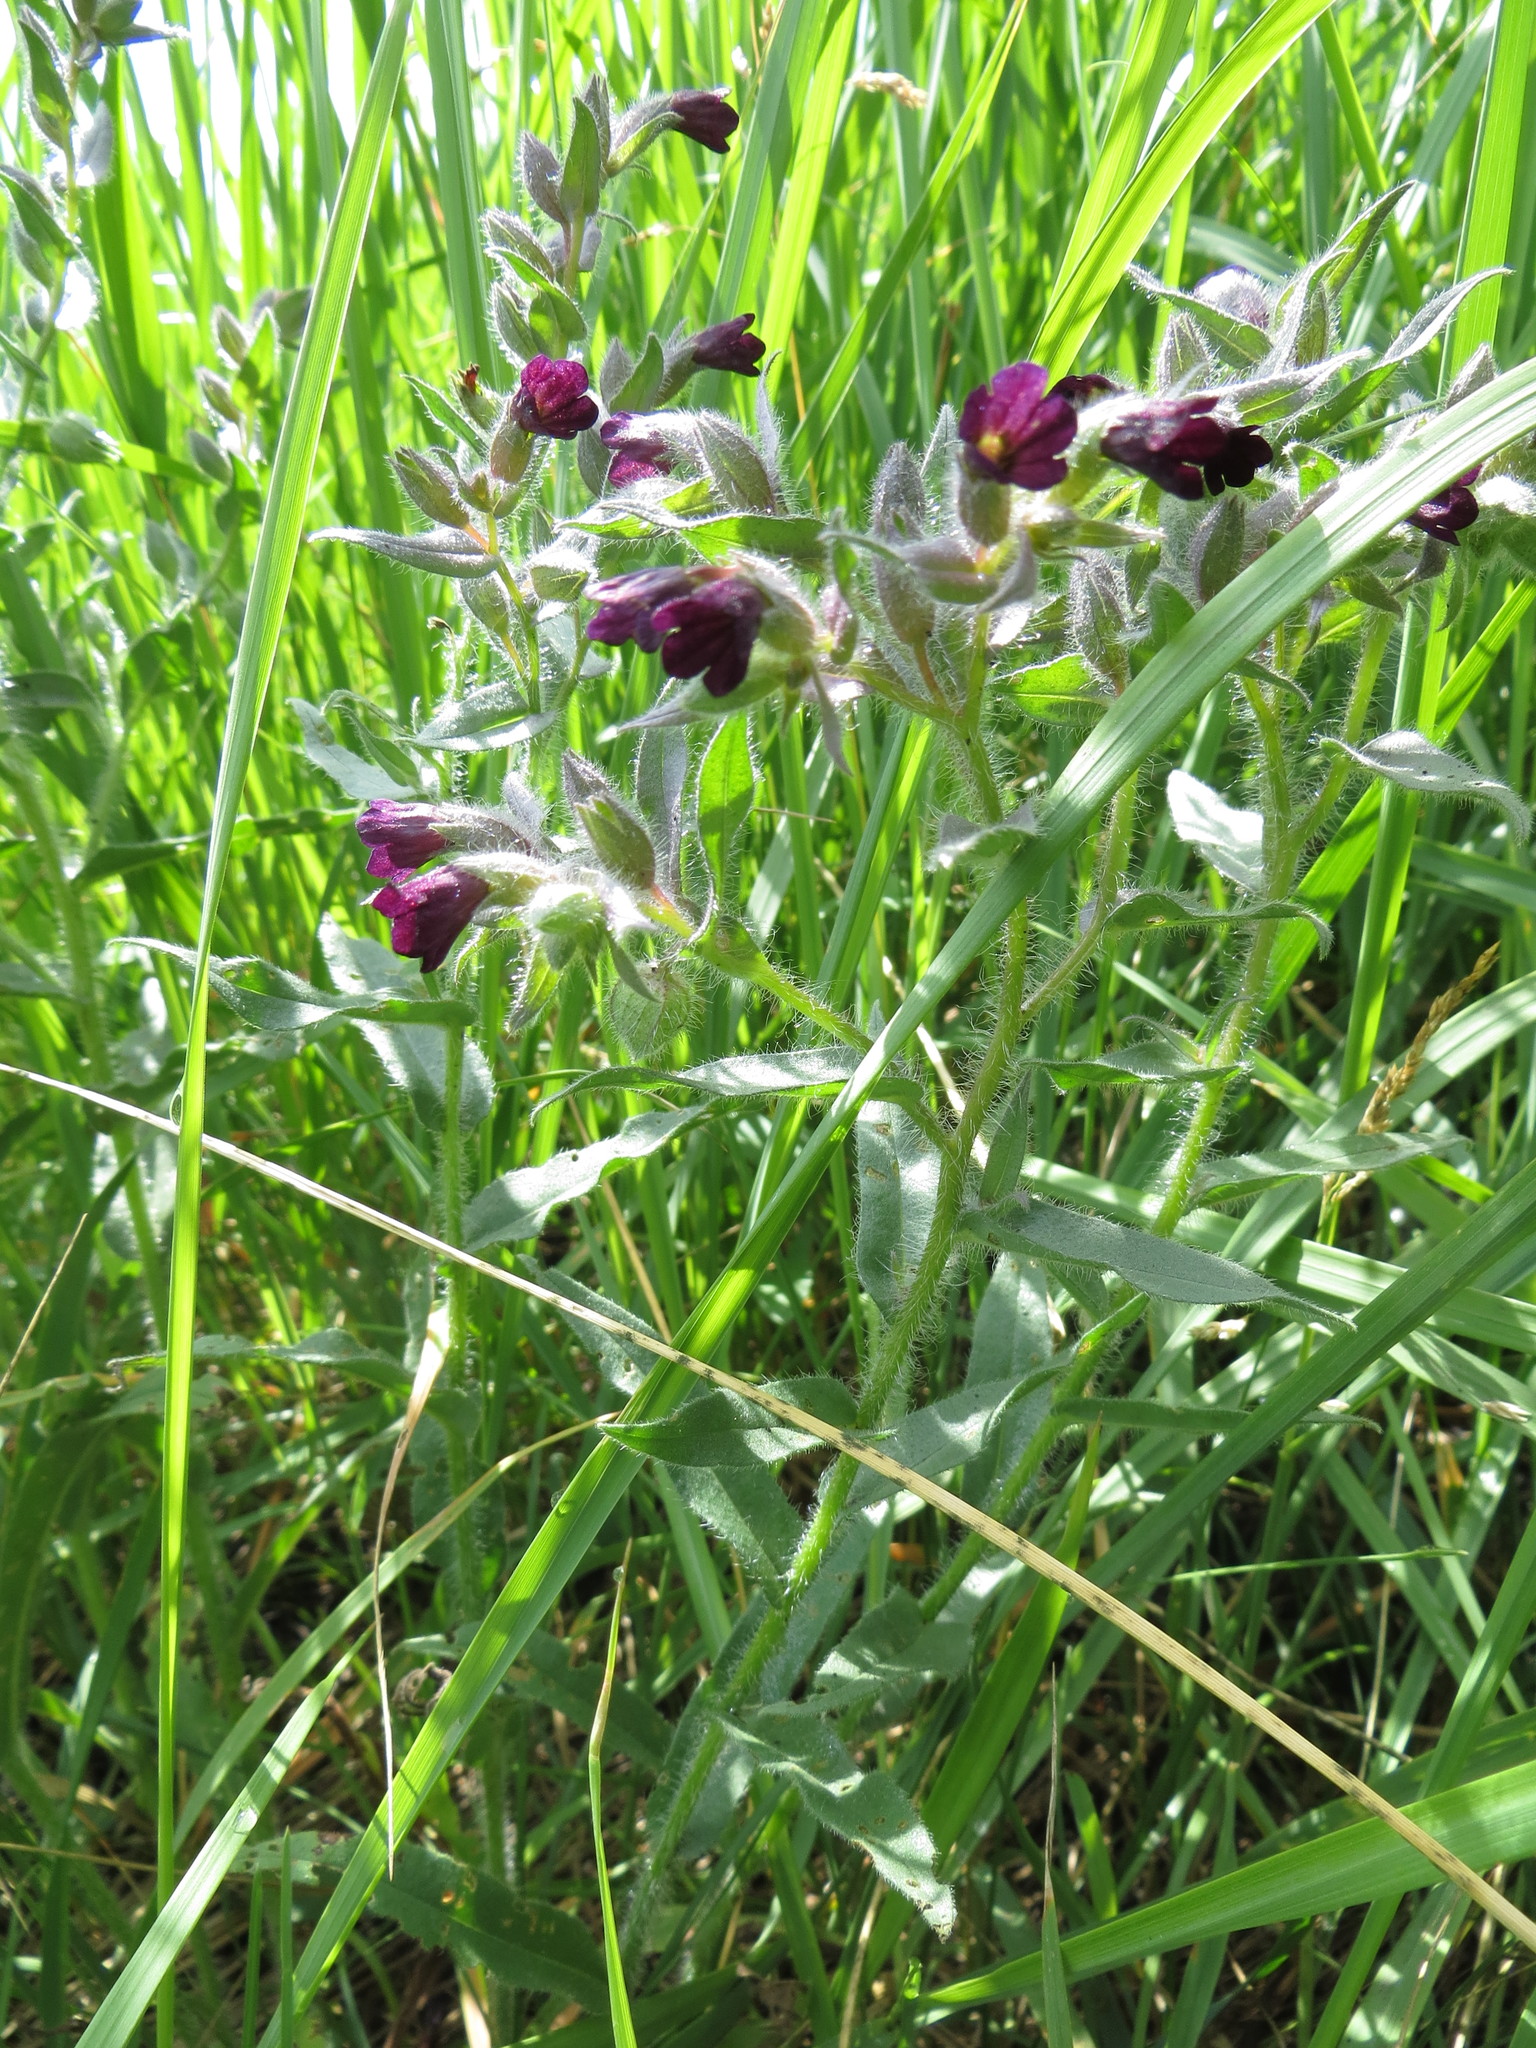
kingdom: Plantae
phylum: Tracheophyta
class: Magnoliopsida
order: Boraginales
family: Boraginaceae
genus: Nonea
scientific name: Nonea pulla
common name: Brown nonea
